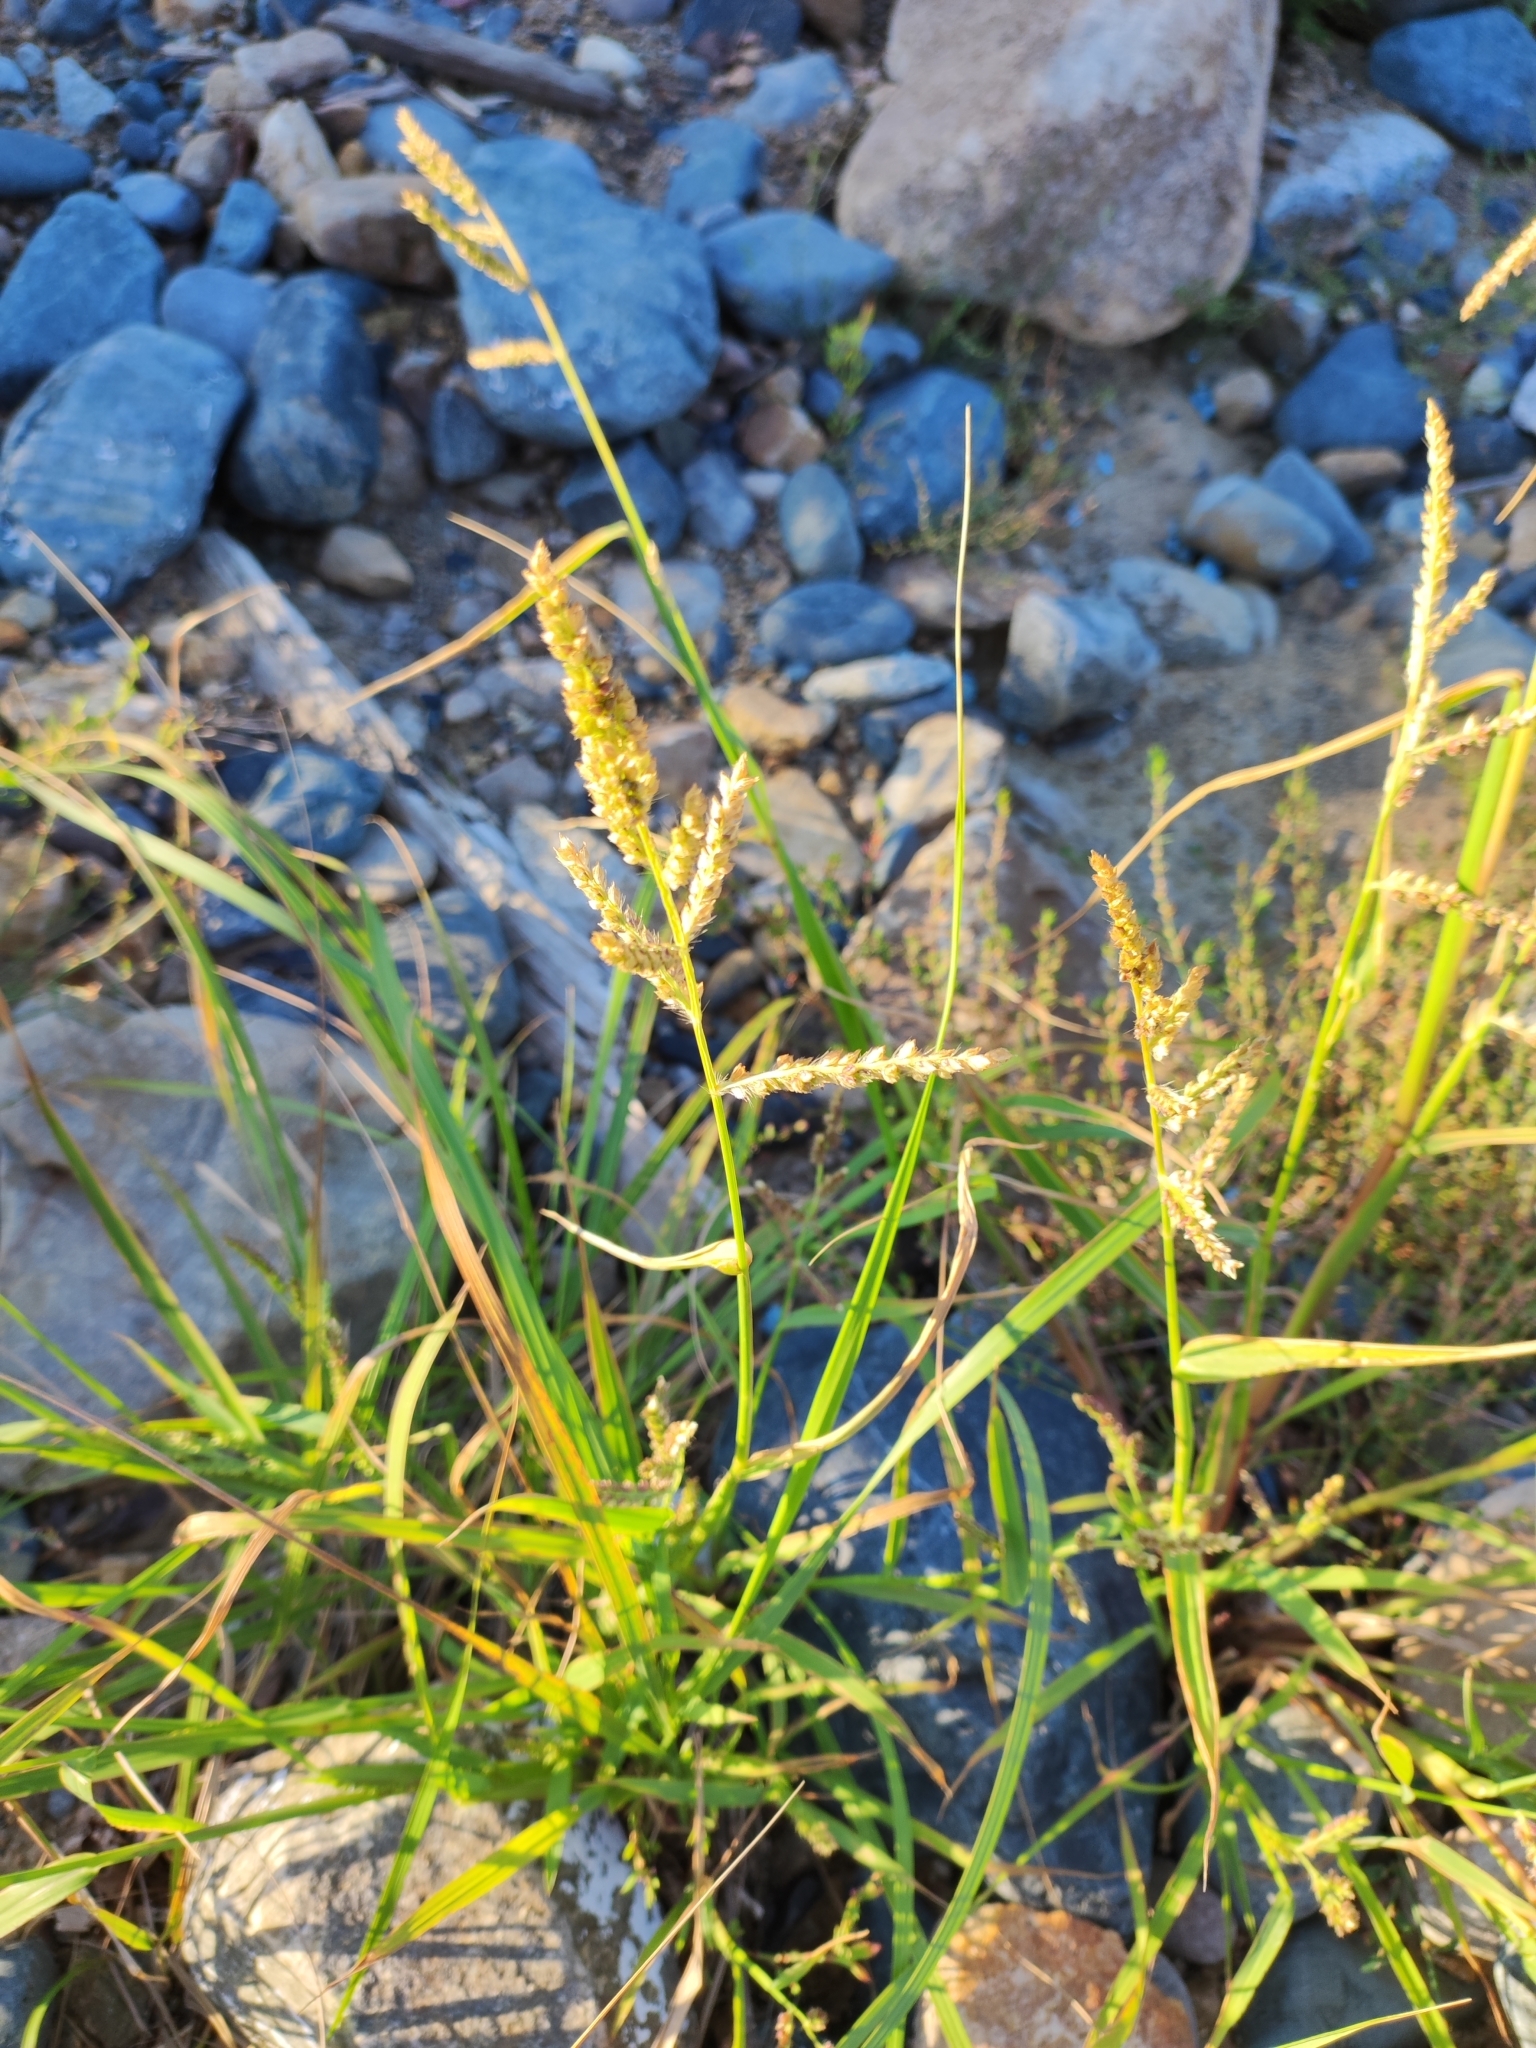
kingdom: Plantae
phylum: Tracheophyta
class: Liliopsida
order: Poales
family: Poaceae
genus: Echinochloa
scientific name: Echinochloa crus-galli
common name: Cockspur
